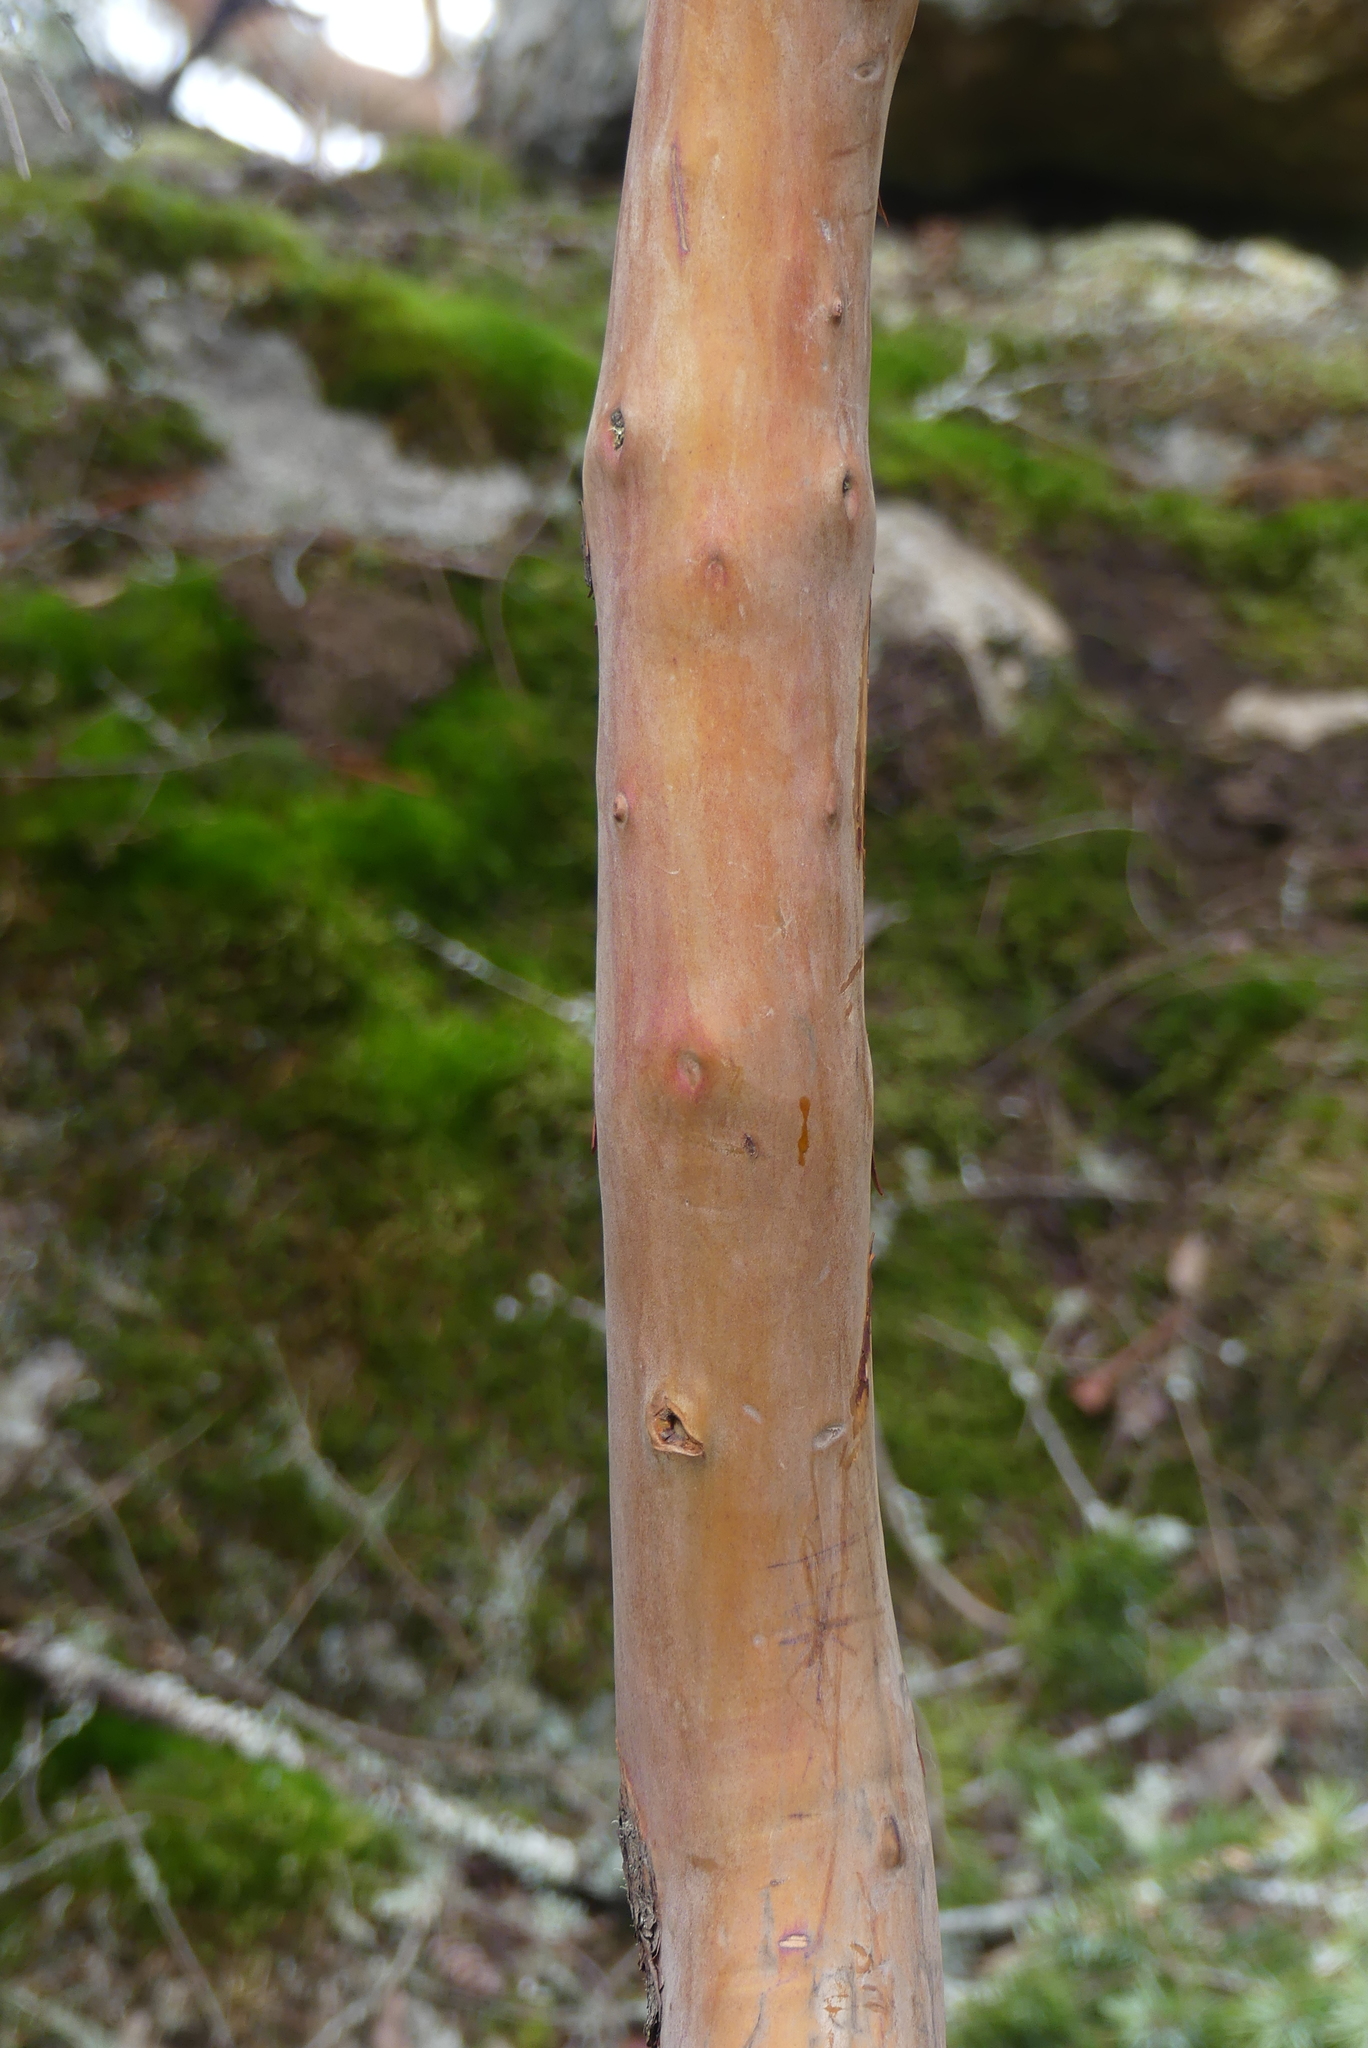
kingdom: Plantae
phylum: Tracheophyta
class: Magnoliopsida
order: Ericales
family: Ericaceae
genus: Arbutus
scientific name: Arbutus menziesii
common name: Pacific madrone
